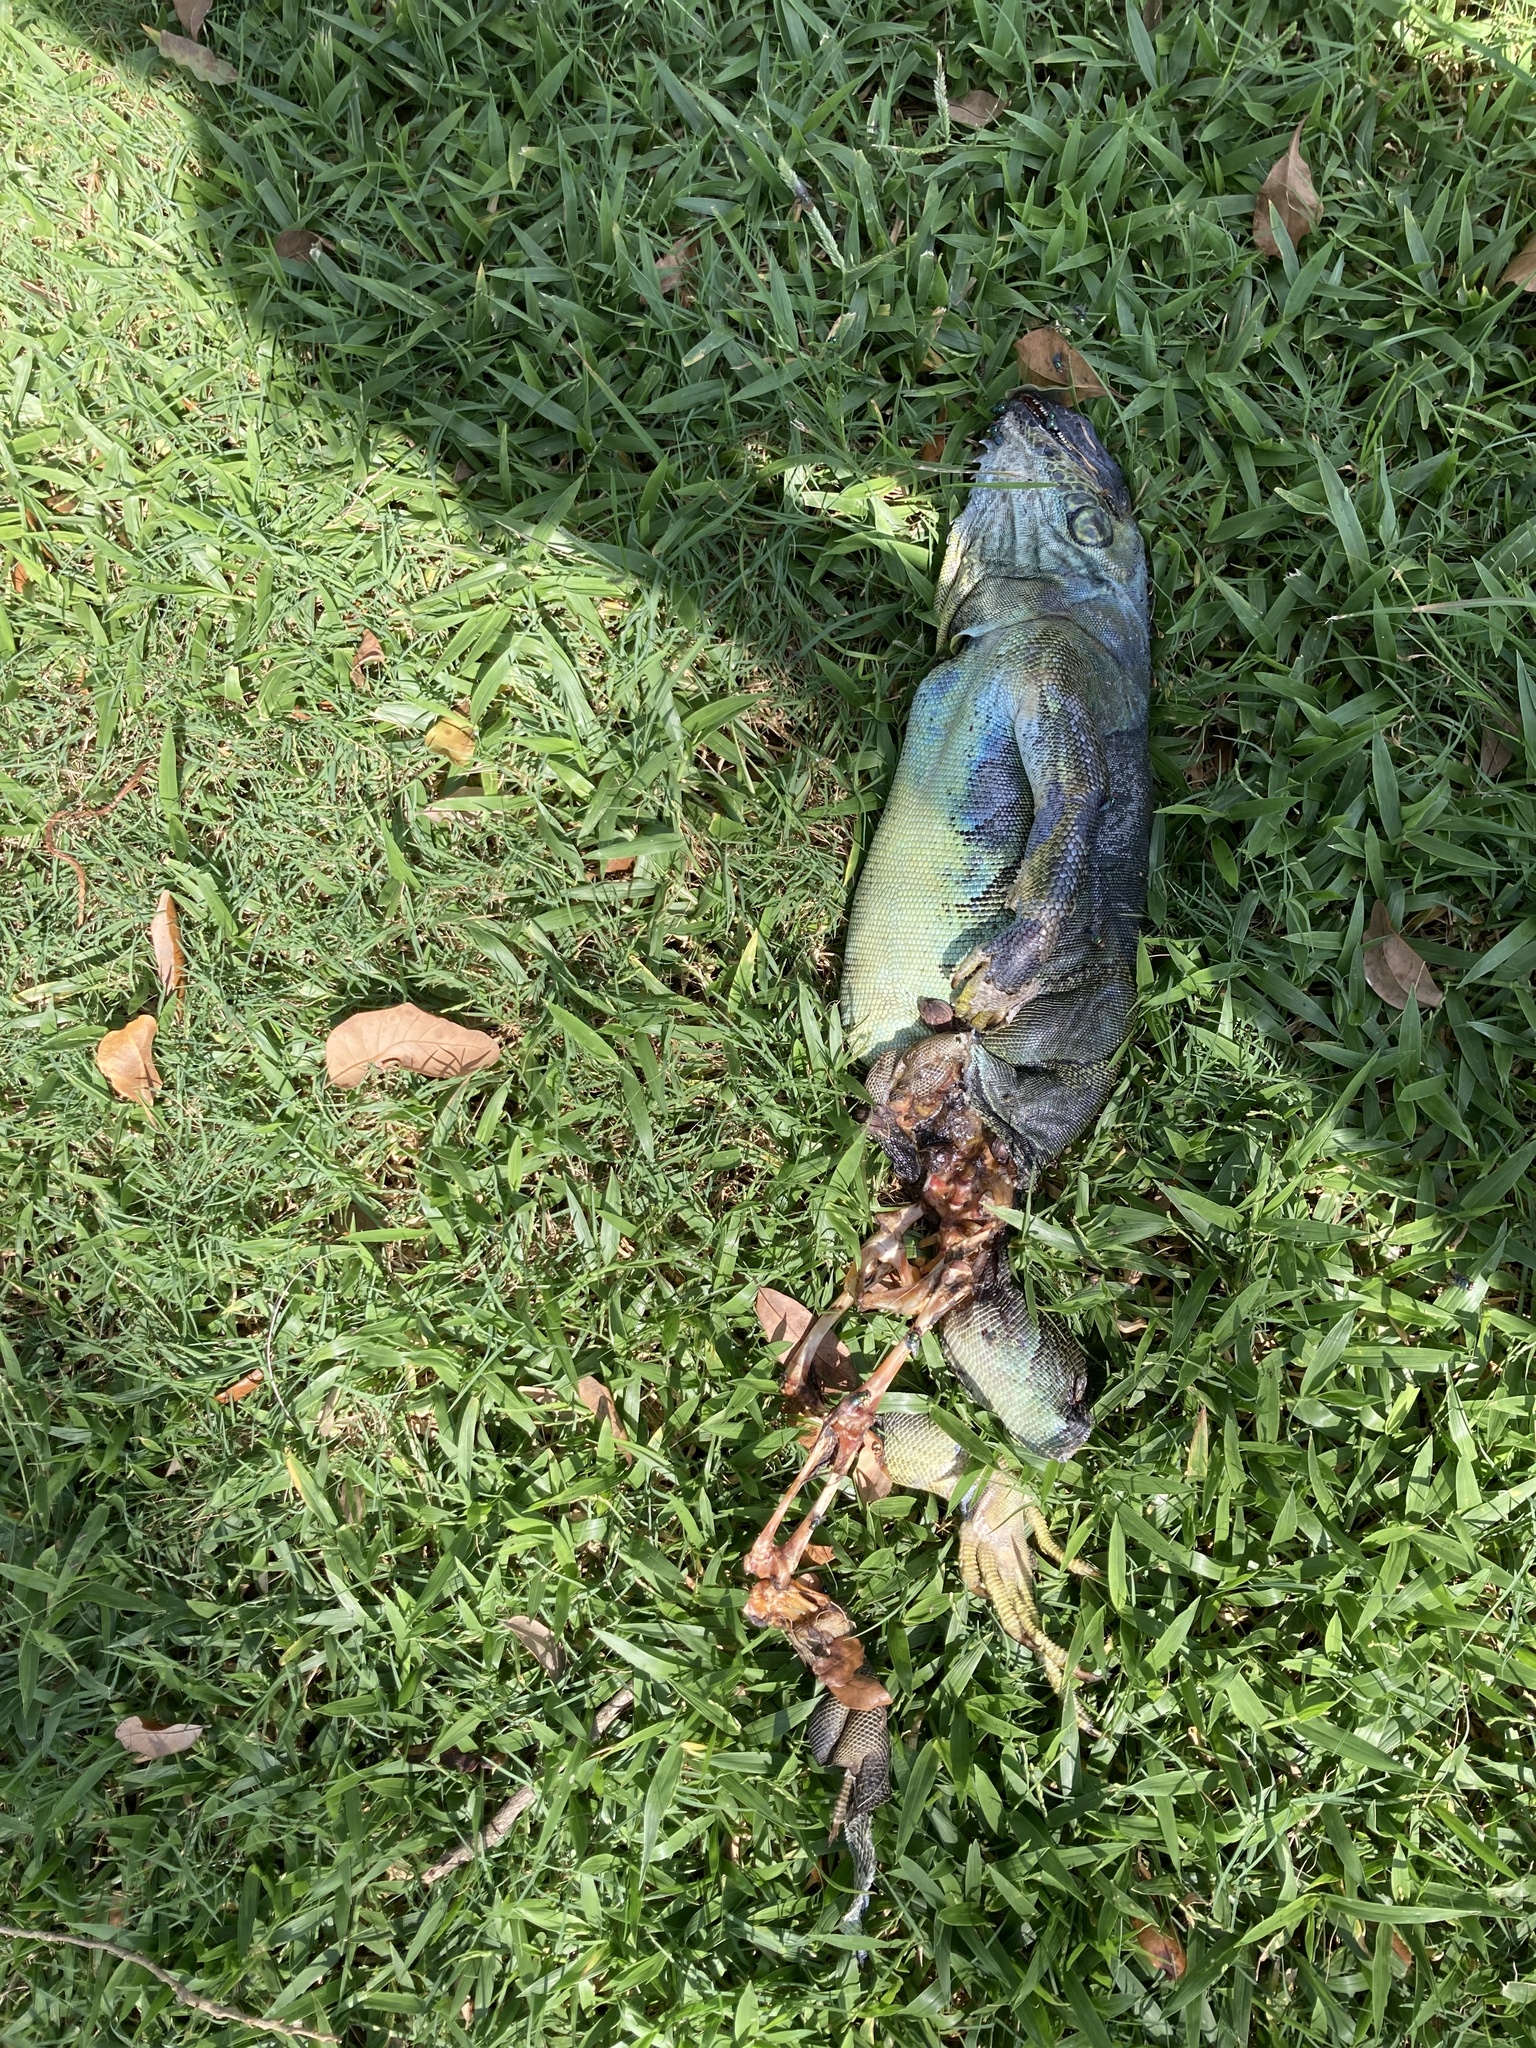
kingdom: Animalia
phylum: Chordata
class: Squamata
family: Iguanidae
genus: Iguana
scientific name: Iguana iguana
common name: Green iguana
